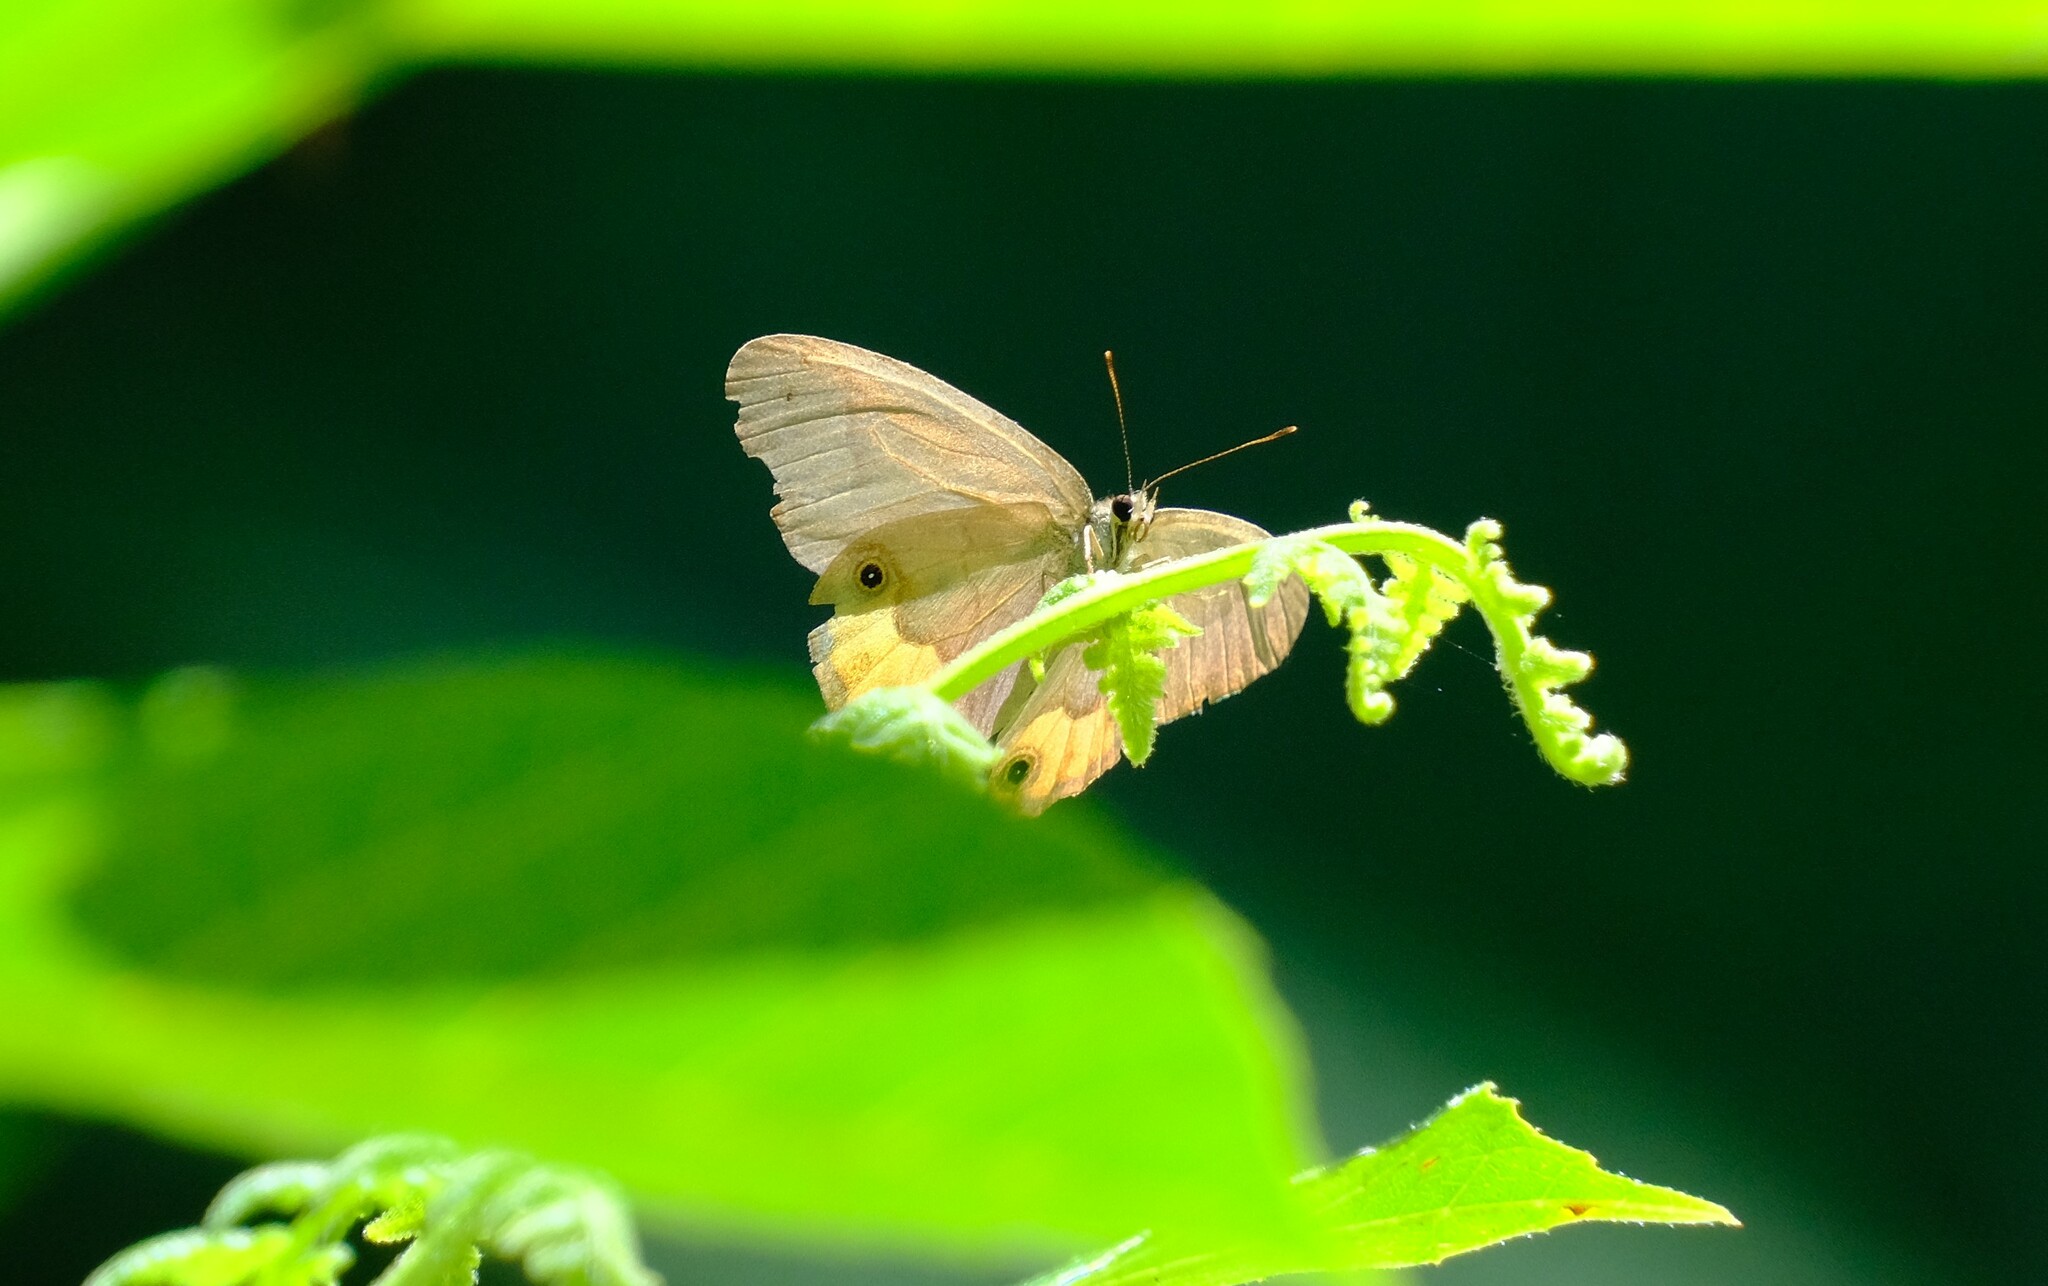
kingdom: Animalia
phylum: Arthropoda
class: Insecta
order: Lepidoptera
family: Nymphalidae
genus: Hypocysta
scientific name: Hypocysta metirius
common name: Brown ringlet
